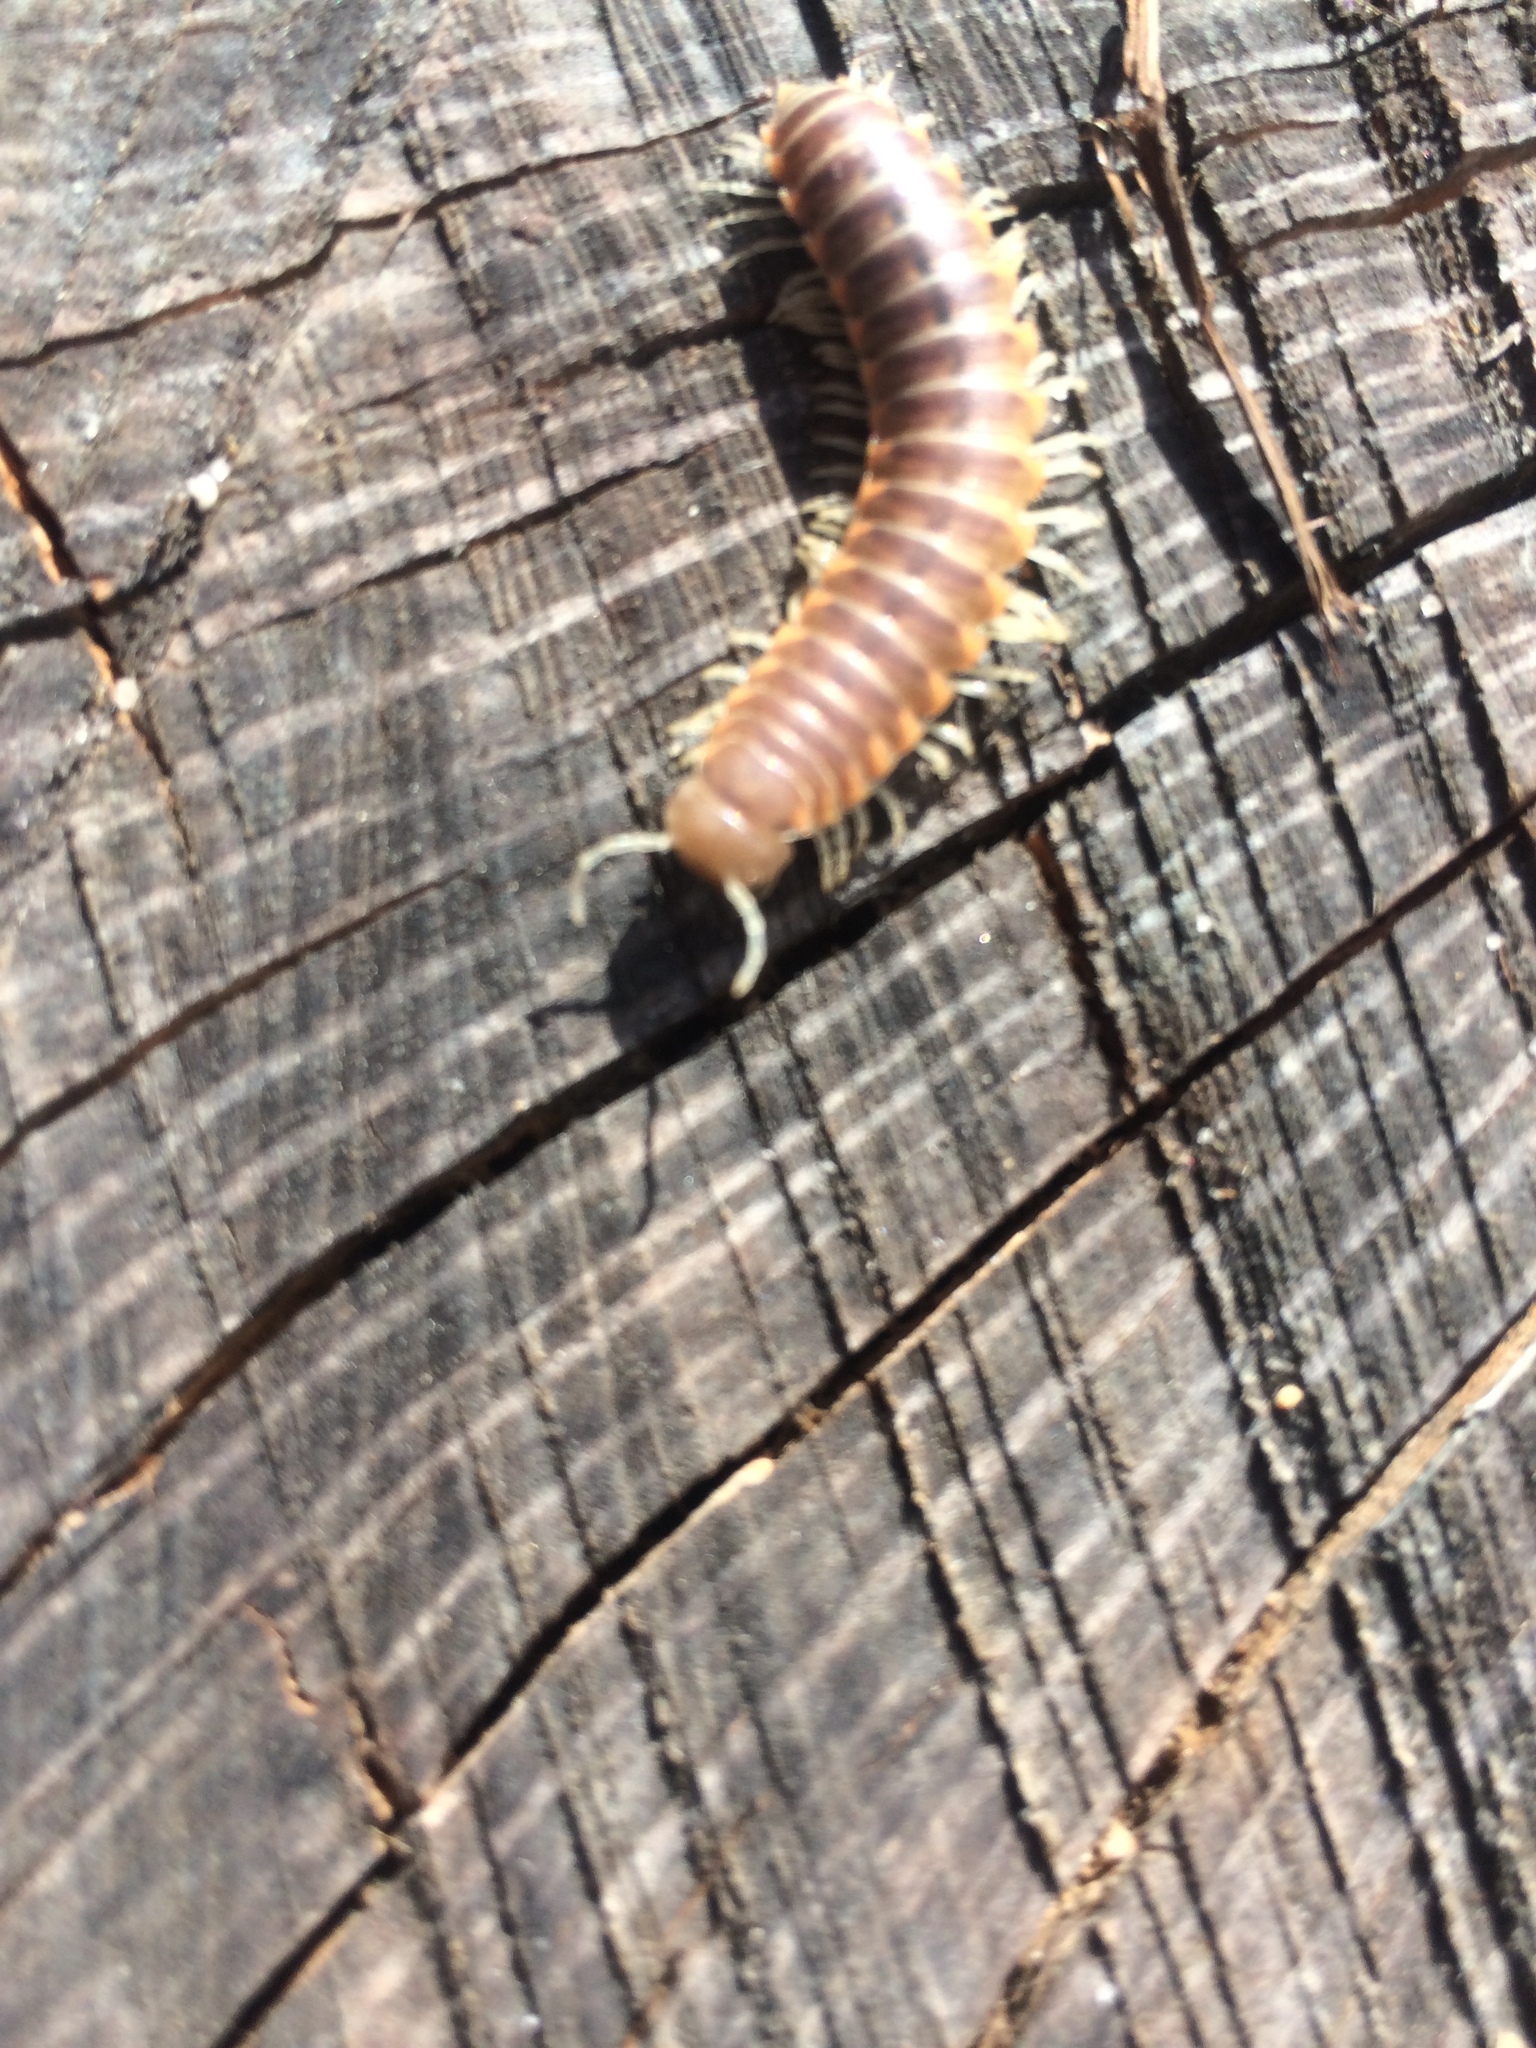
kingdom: Animalia
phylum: Arthropoda
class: Diplopoda
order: Polydesmida
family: Xystodesmidae
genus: Xystocheir
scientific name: Xystocheir dissecta
